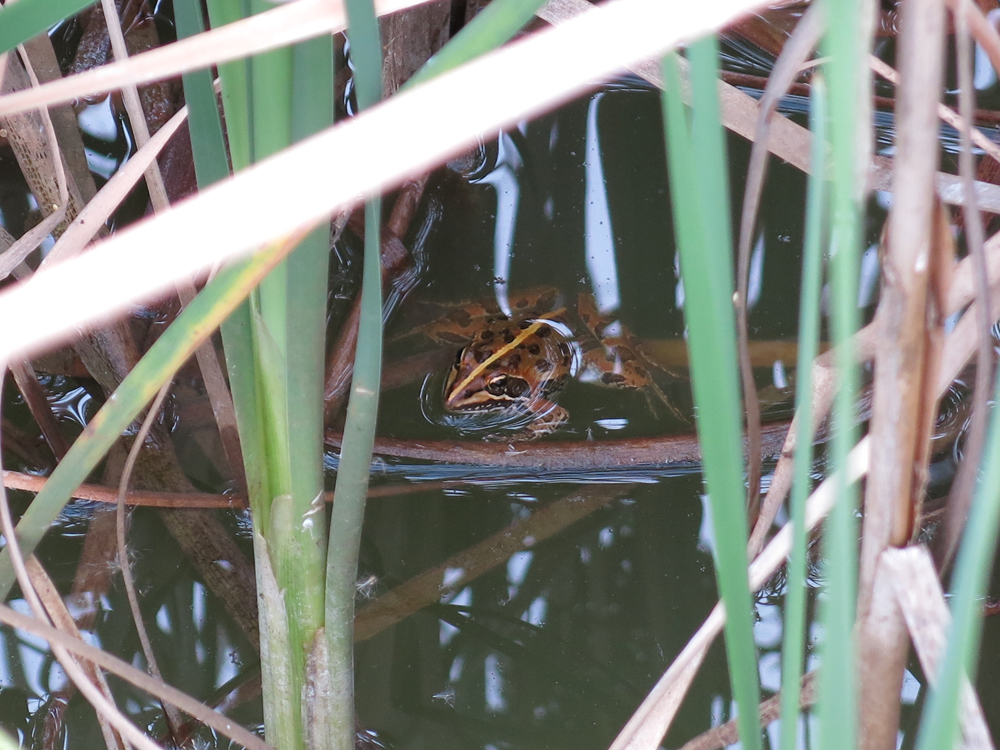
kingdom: Animalia
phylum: Chordata
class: Amphibia
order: Anura
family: Pyxicephalidae
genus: Amietia
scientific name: Amietia delalandii
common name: Delalande's river frog
